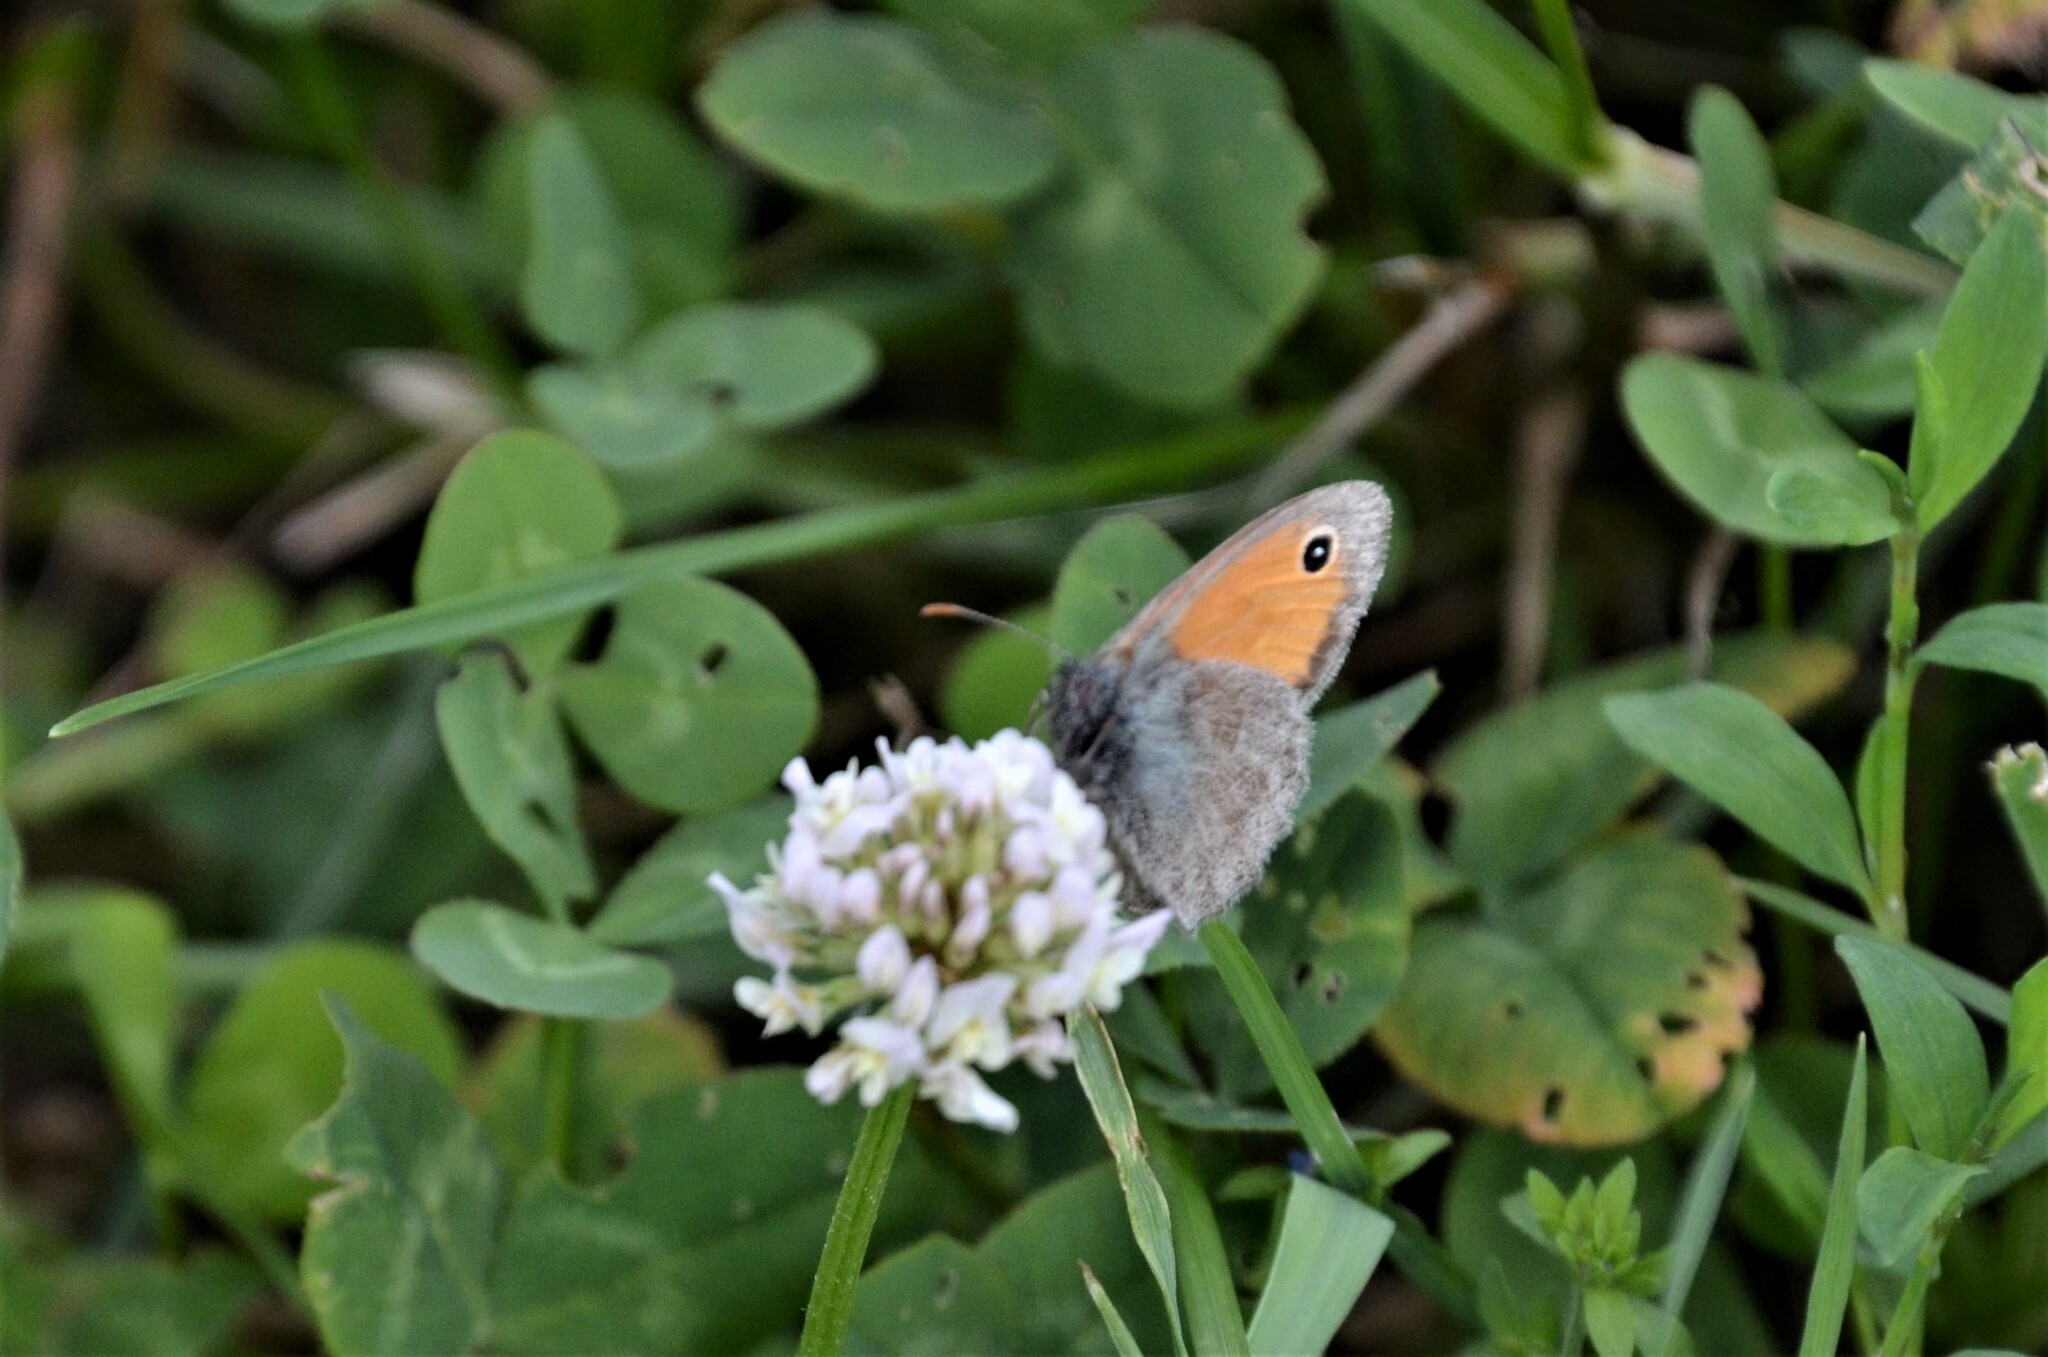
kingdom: Animalia
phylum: Arthropoda
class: Insecta
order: Lepidoptera
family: Nymphalidae
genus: Coenonympha
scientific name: Coenonympha pamphilus
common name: Small heath
